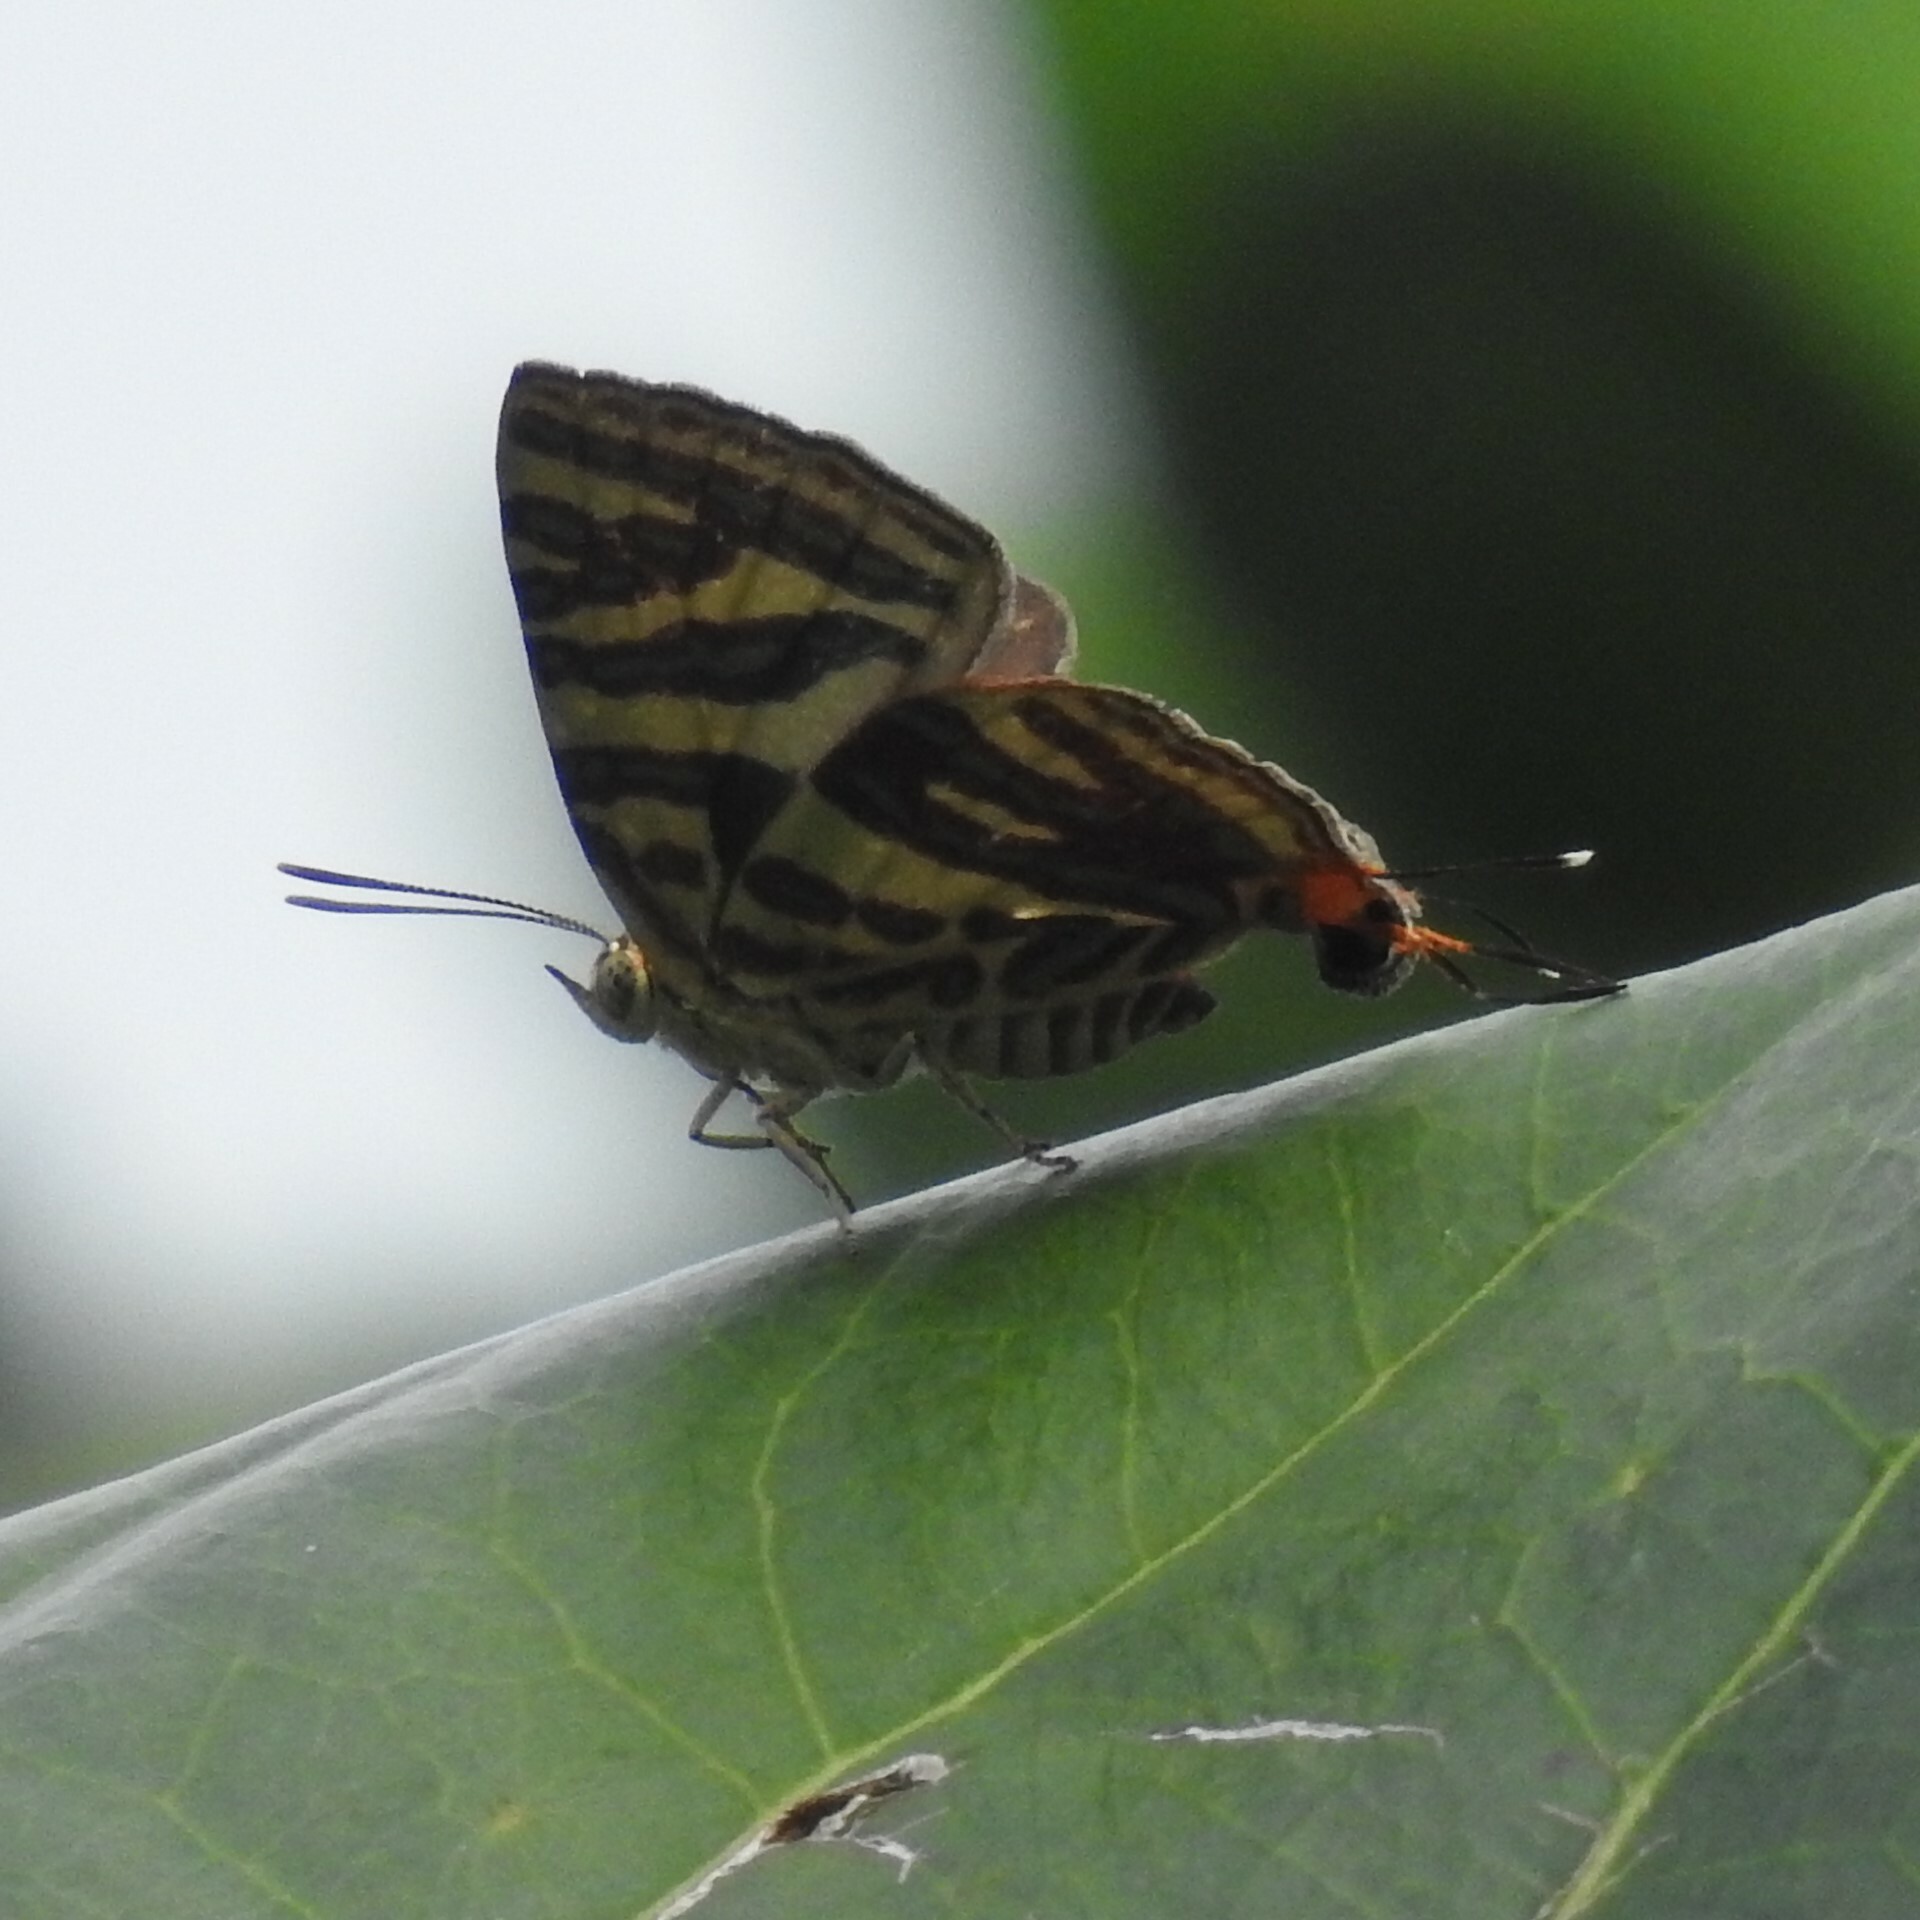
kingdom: Animalia
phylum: Arthropoda
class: Insecta
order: Lepidoptera
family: Lycaenidae
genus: Cigaritis
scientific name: Cigaritis lohita
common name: Long-banded silverline
